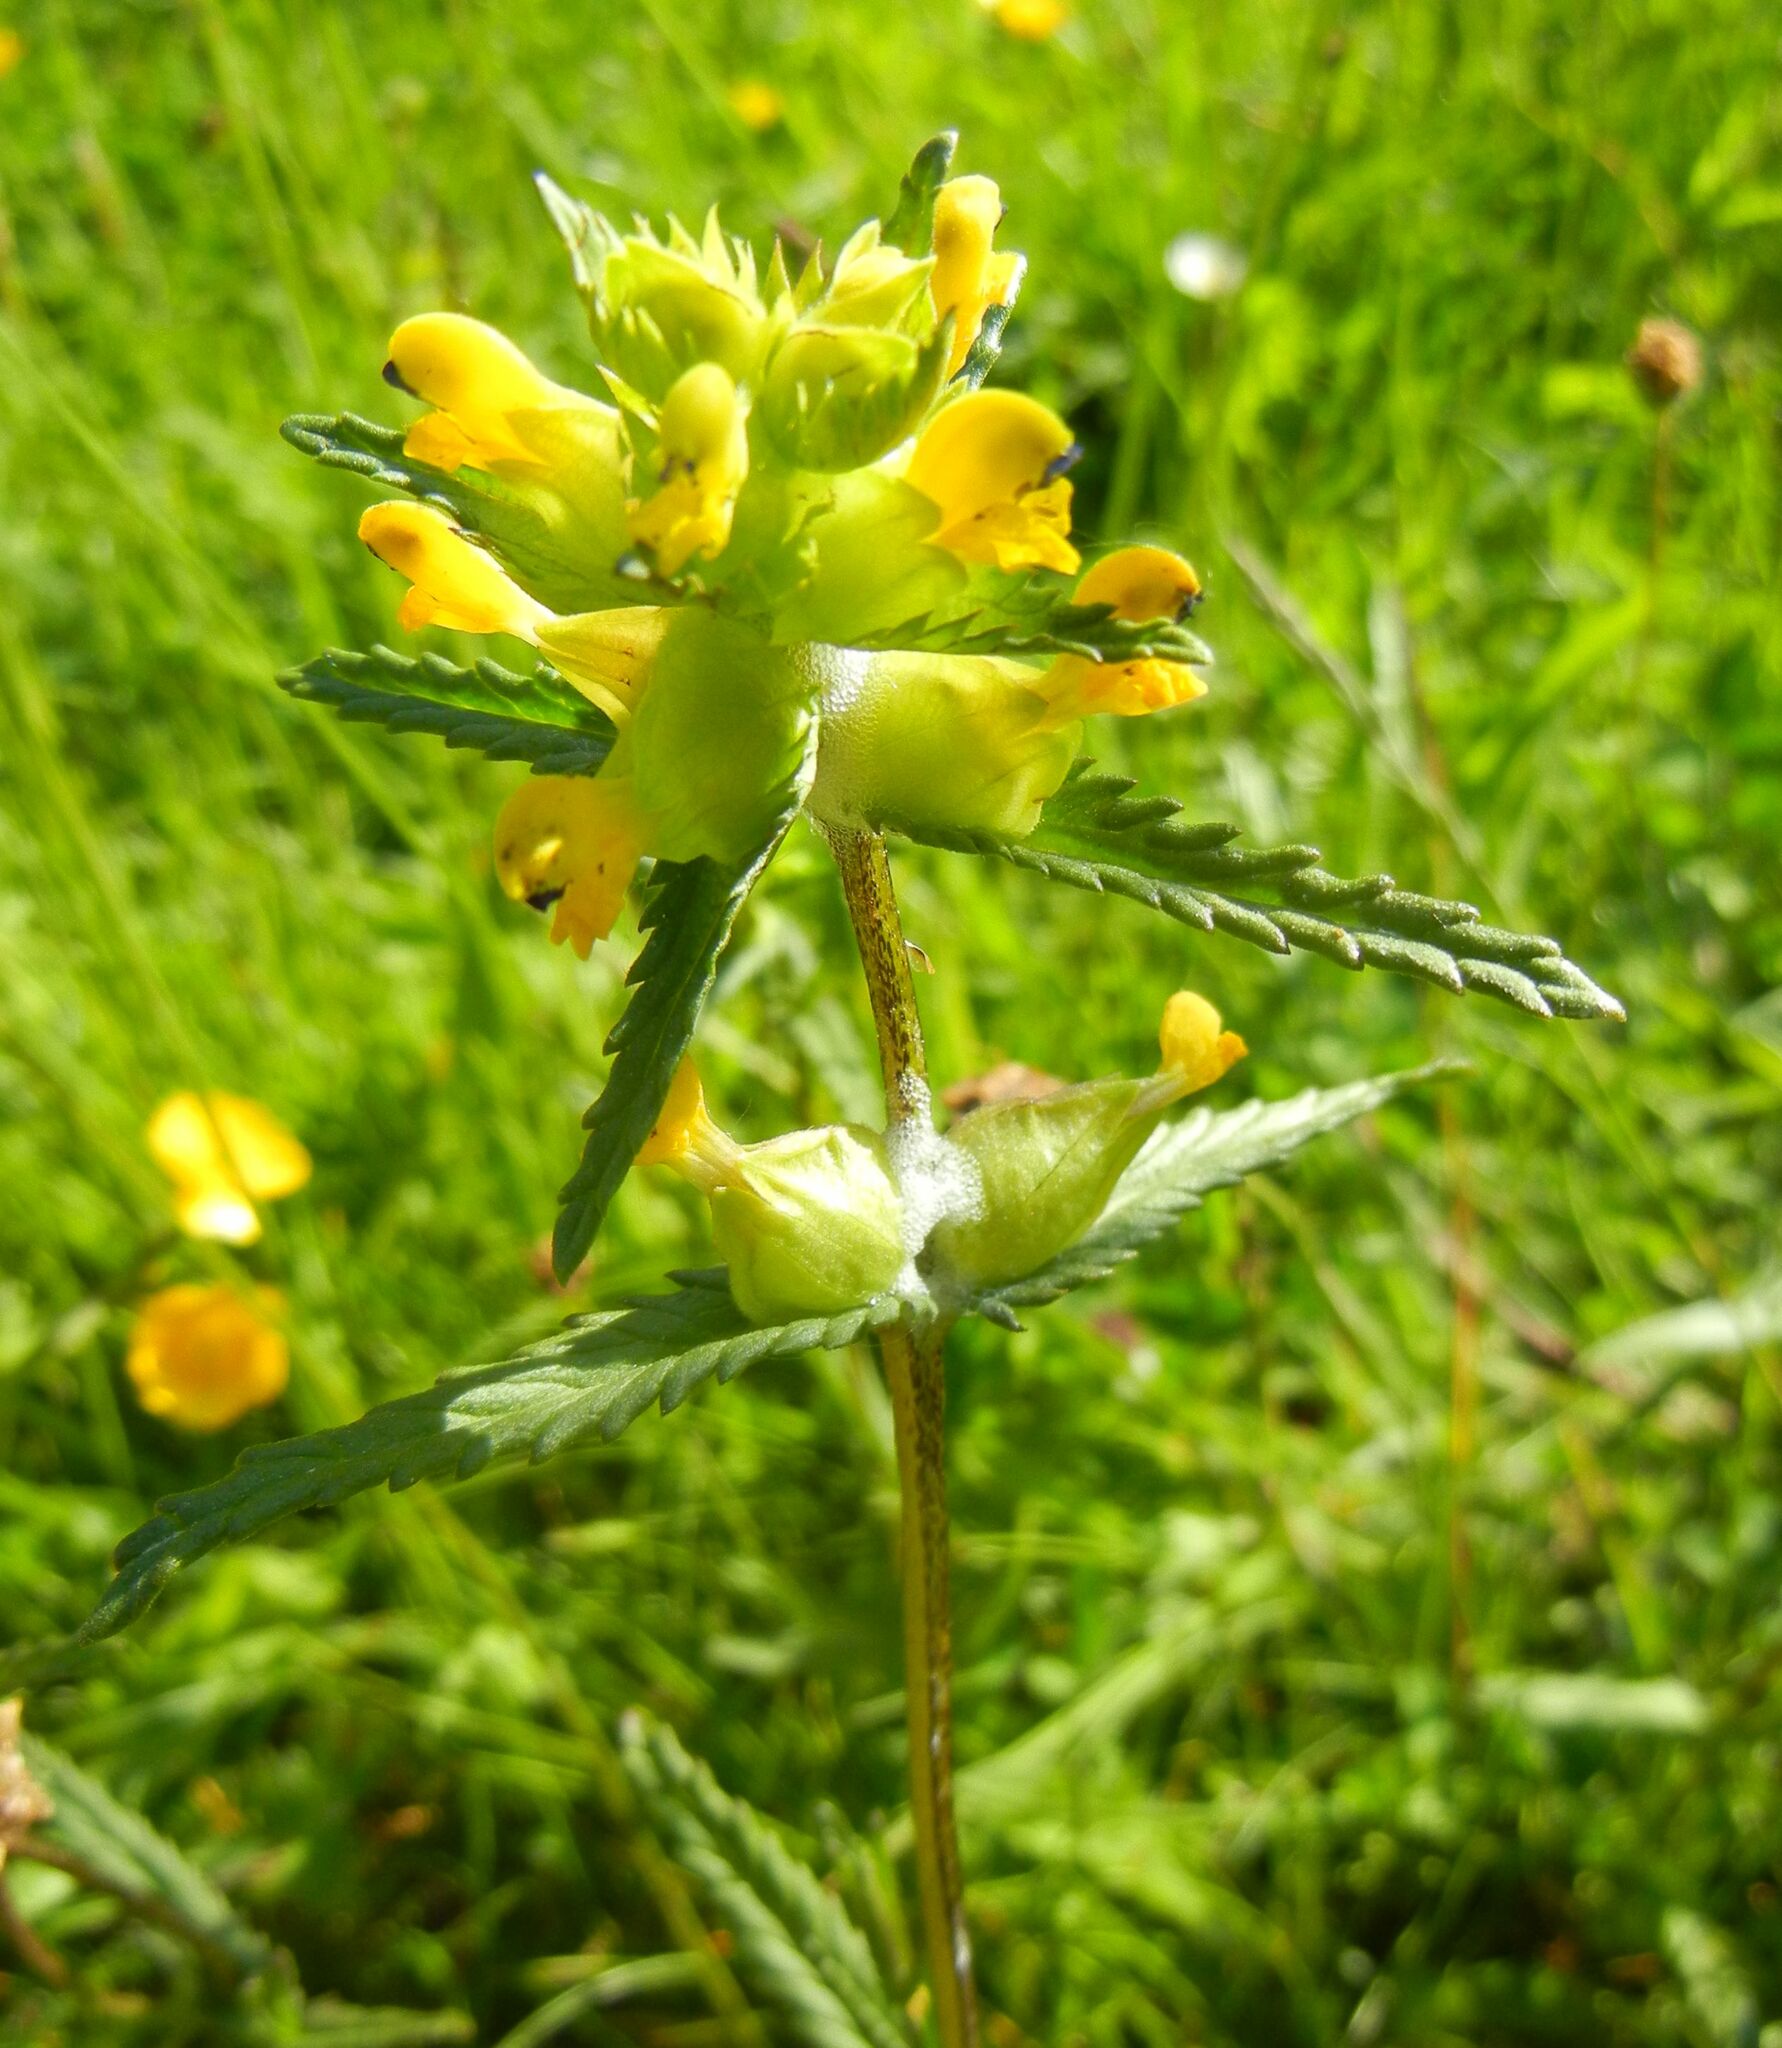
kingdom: Plantae
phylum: Tracheophyta
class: Magnoliopsida
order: Lamiales
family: Orobanchaceae
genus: Rhinanthus
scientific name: Rhinanthus minor
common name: Yellow-rattle
